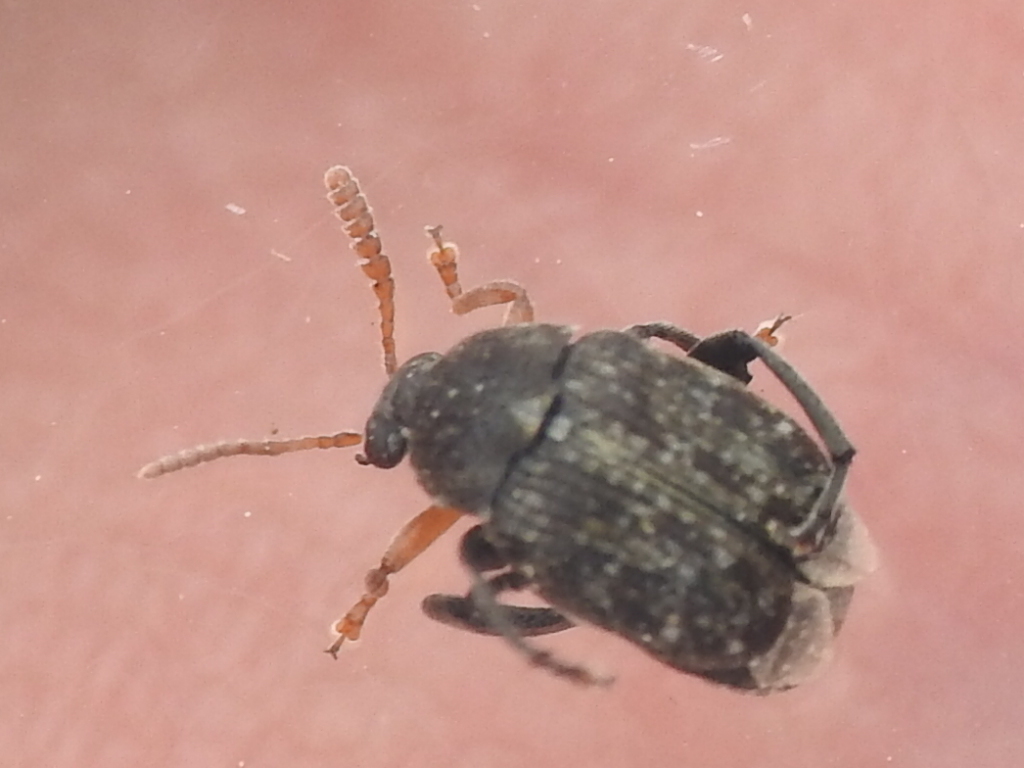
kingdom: Animalia
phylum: Arthropoda
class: Insecta
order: Coleoptera
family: Chrysomelidae
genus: Bruchus
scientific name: Bruchus brachialis
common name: Vetch bruchid
